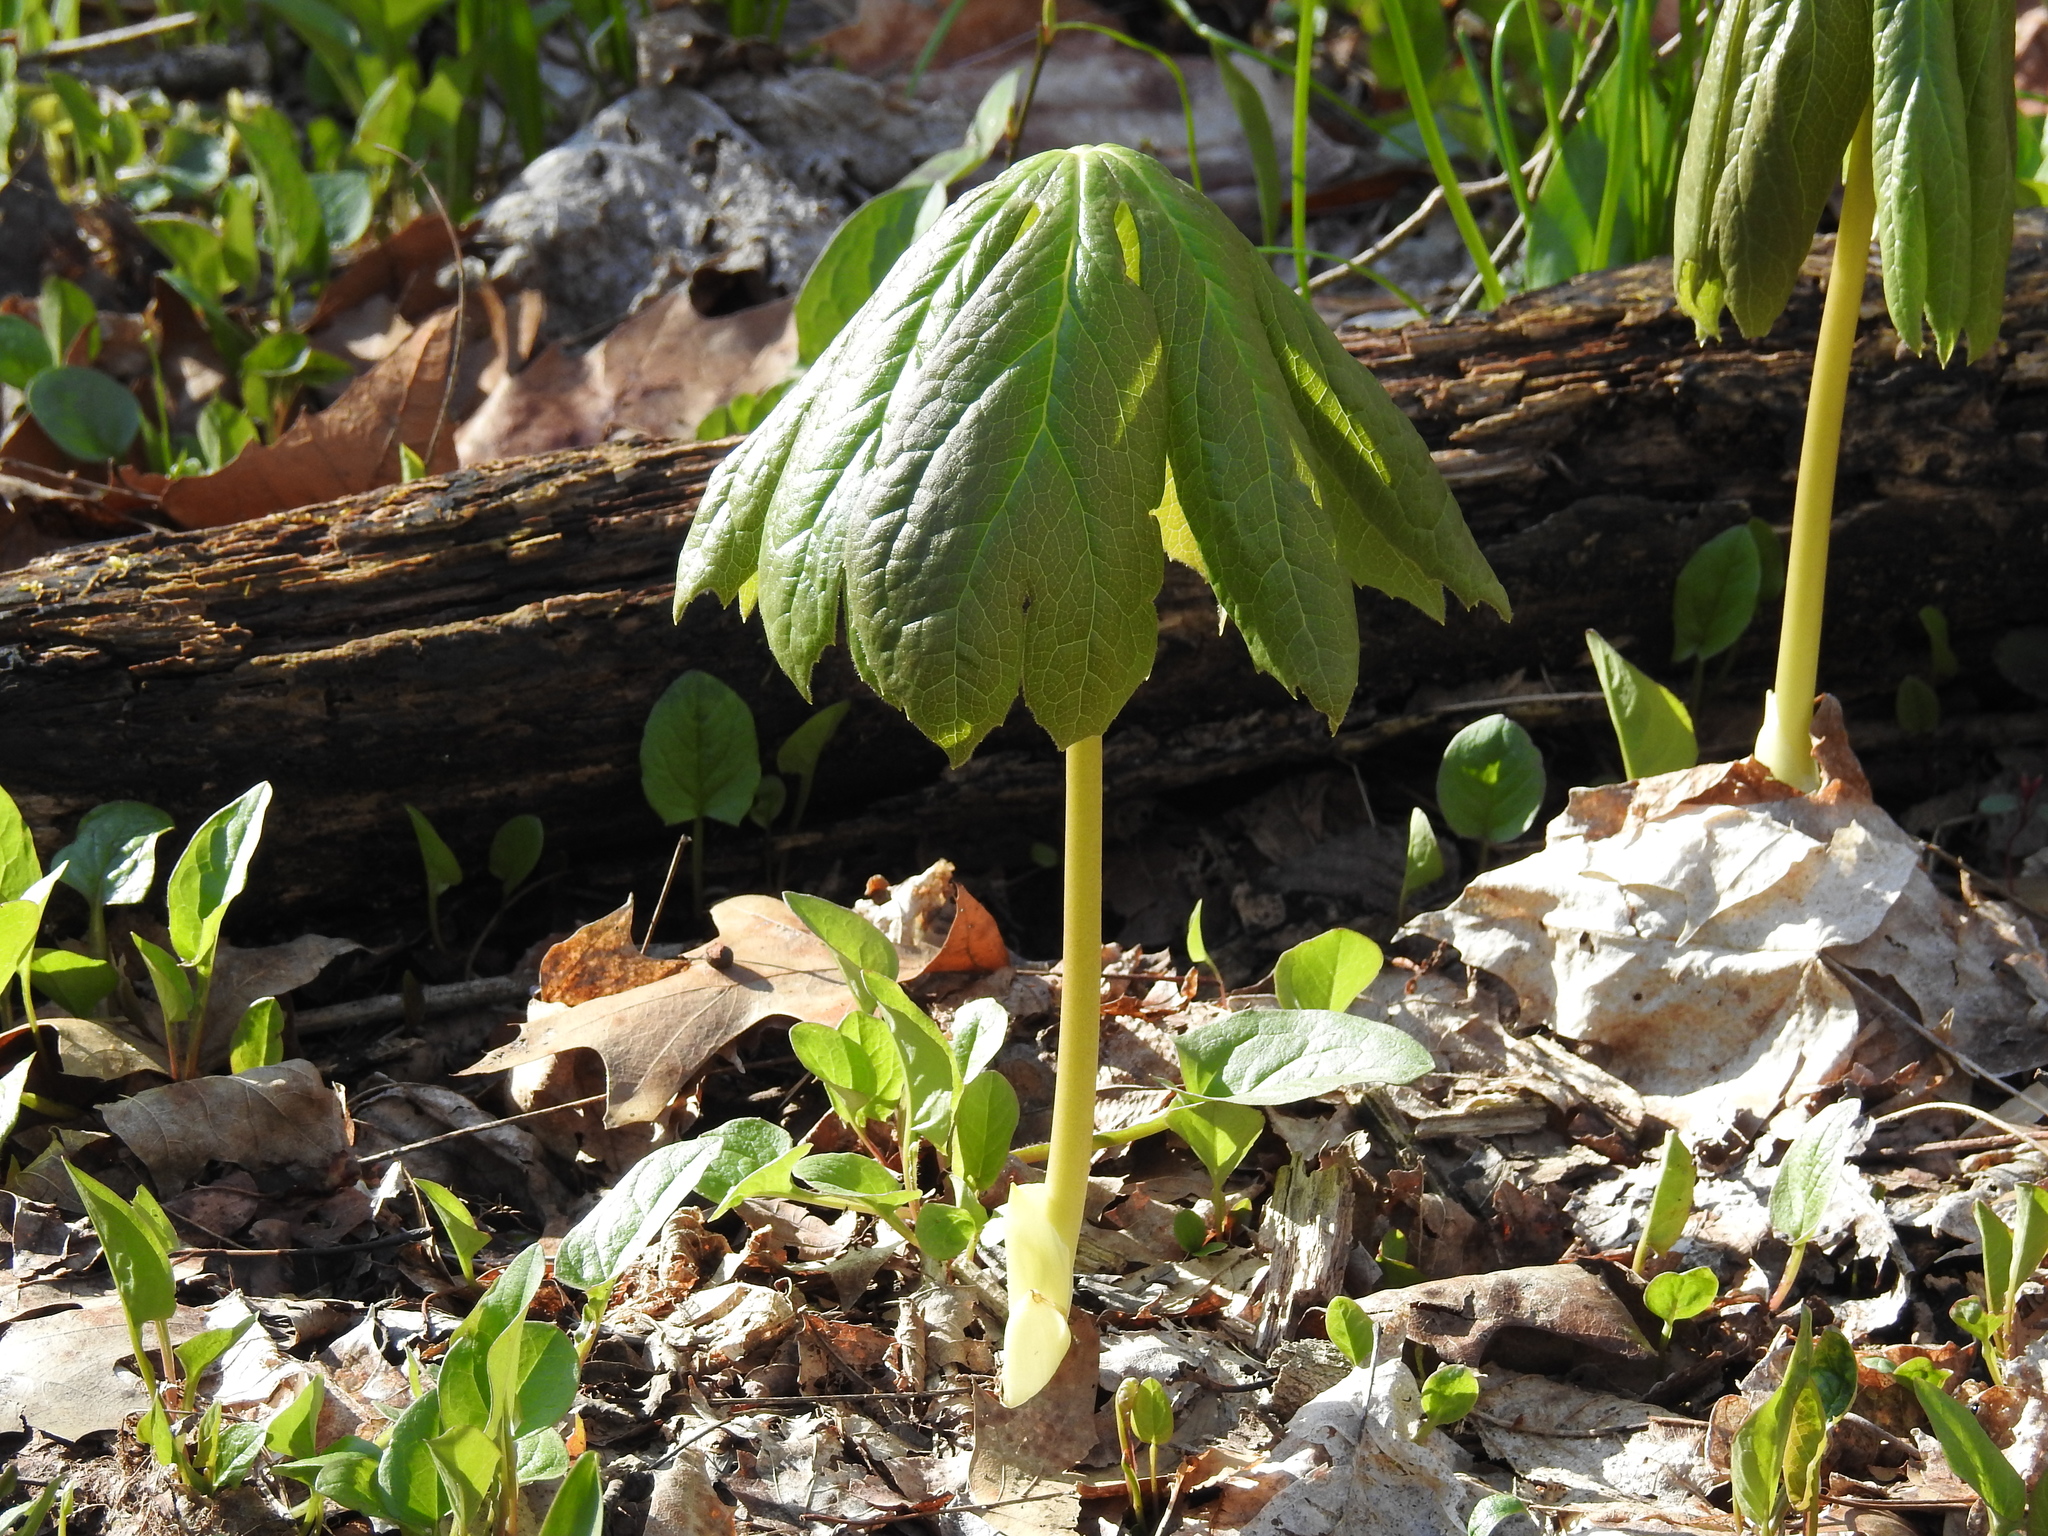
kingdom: Plantae
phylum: Tracheophyta
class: Magnoliopsida
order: Ranunculales
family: Berberidaceae
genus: Podophyllum
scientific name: Podophyllum peltatum
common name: Wild mandrake
